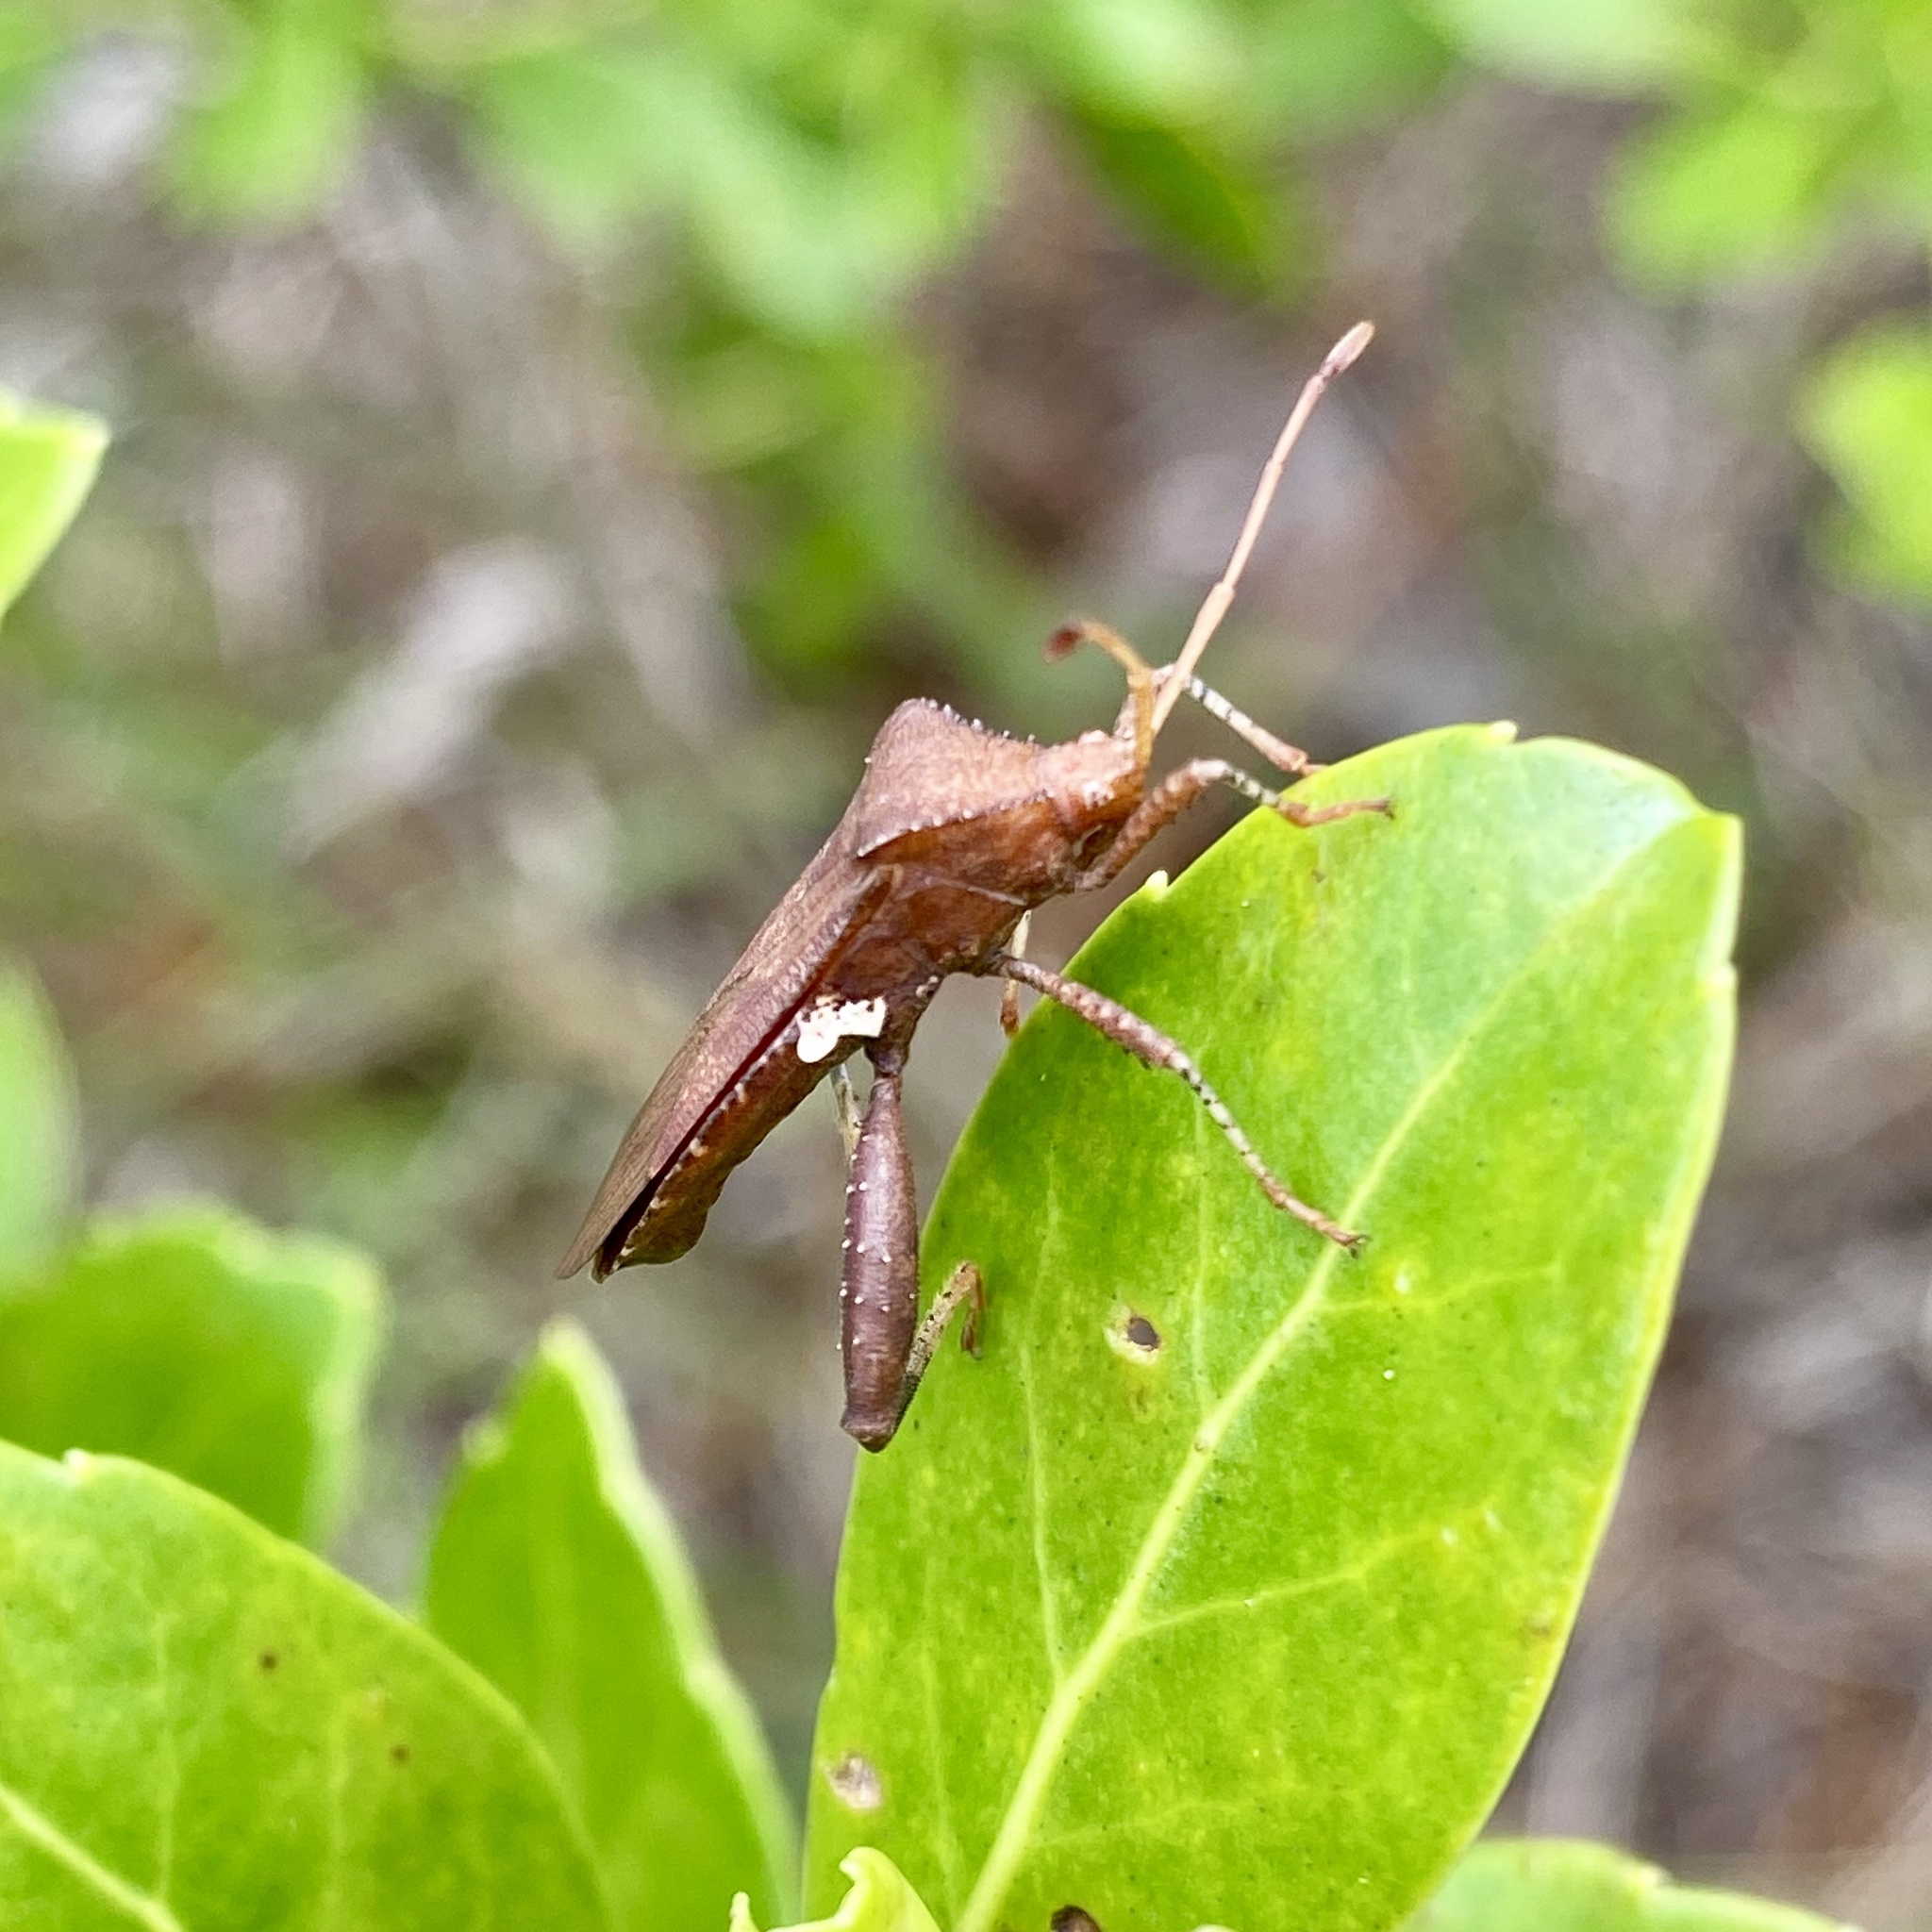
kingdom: Animalia
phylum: Arthropoda
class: Insecta
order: Hemiptera
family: Coreidae
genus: Euthochtha
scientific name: Euthochtha galeator
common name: Helmeted squash bug
